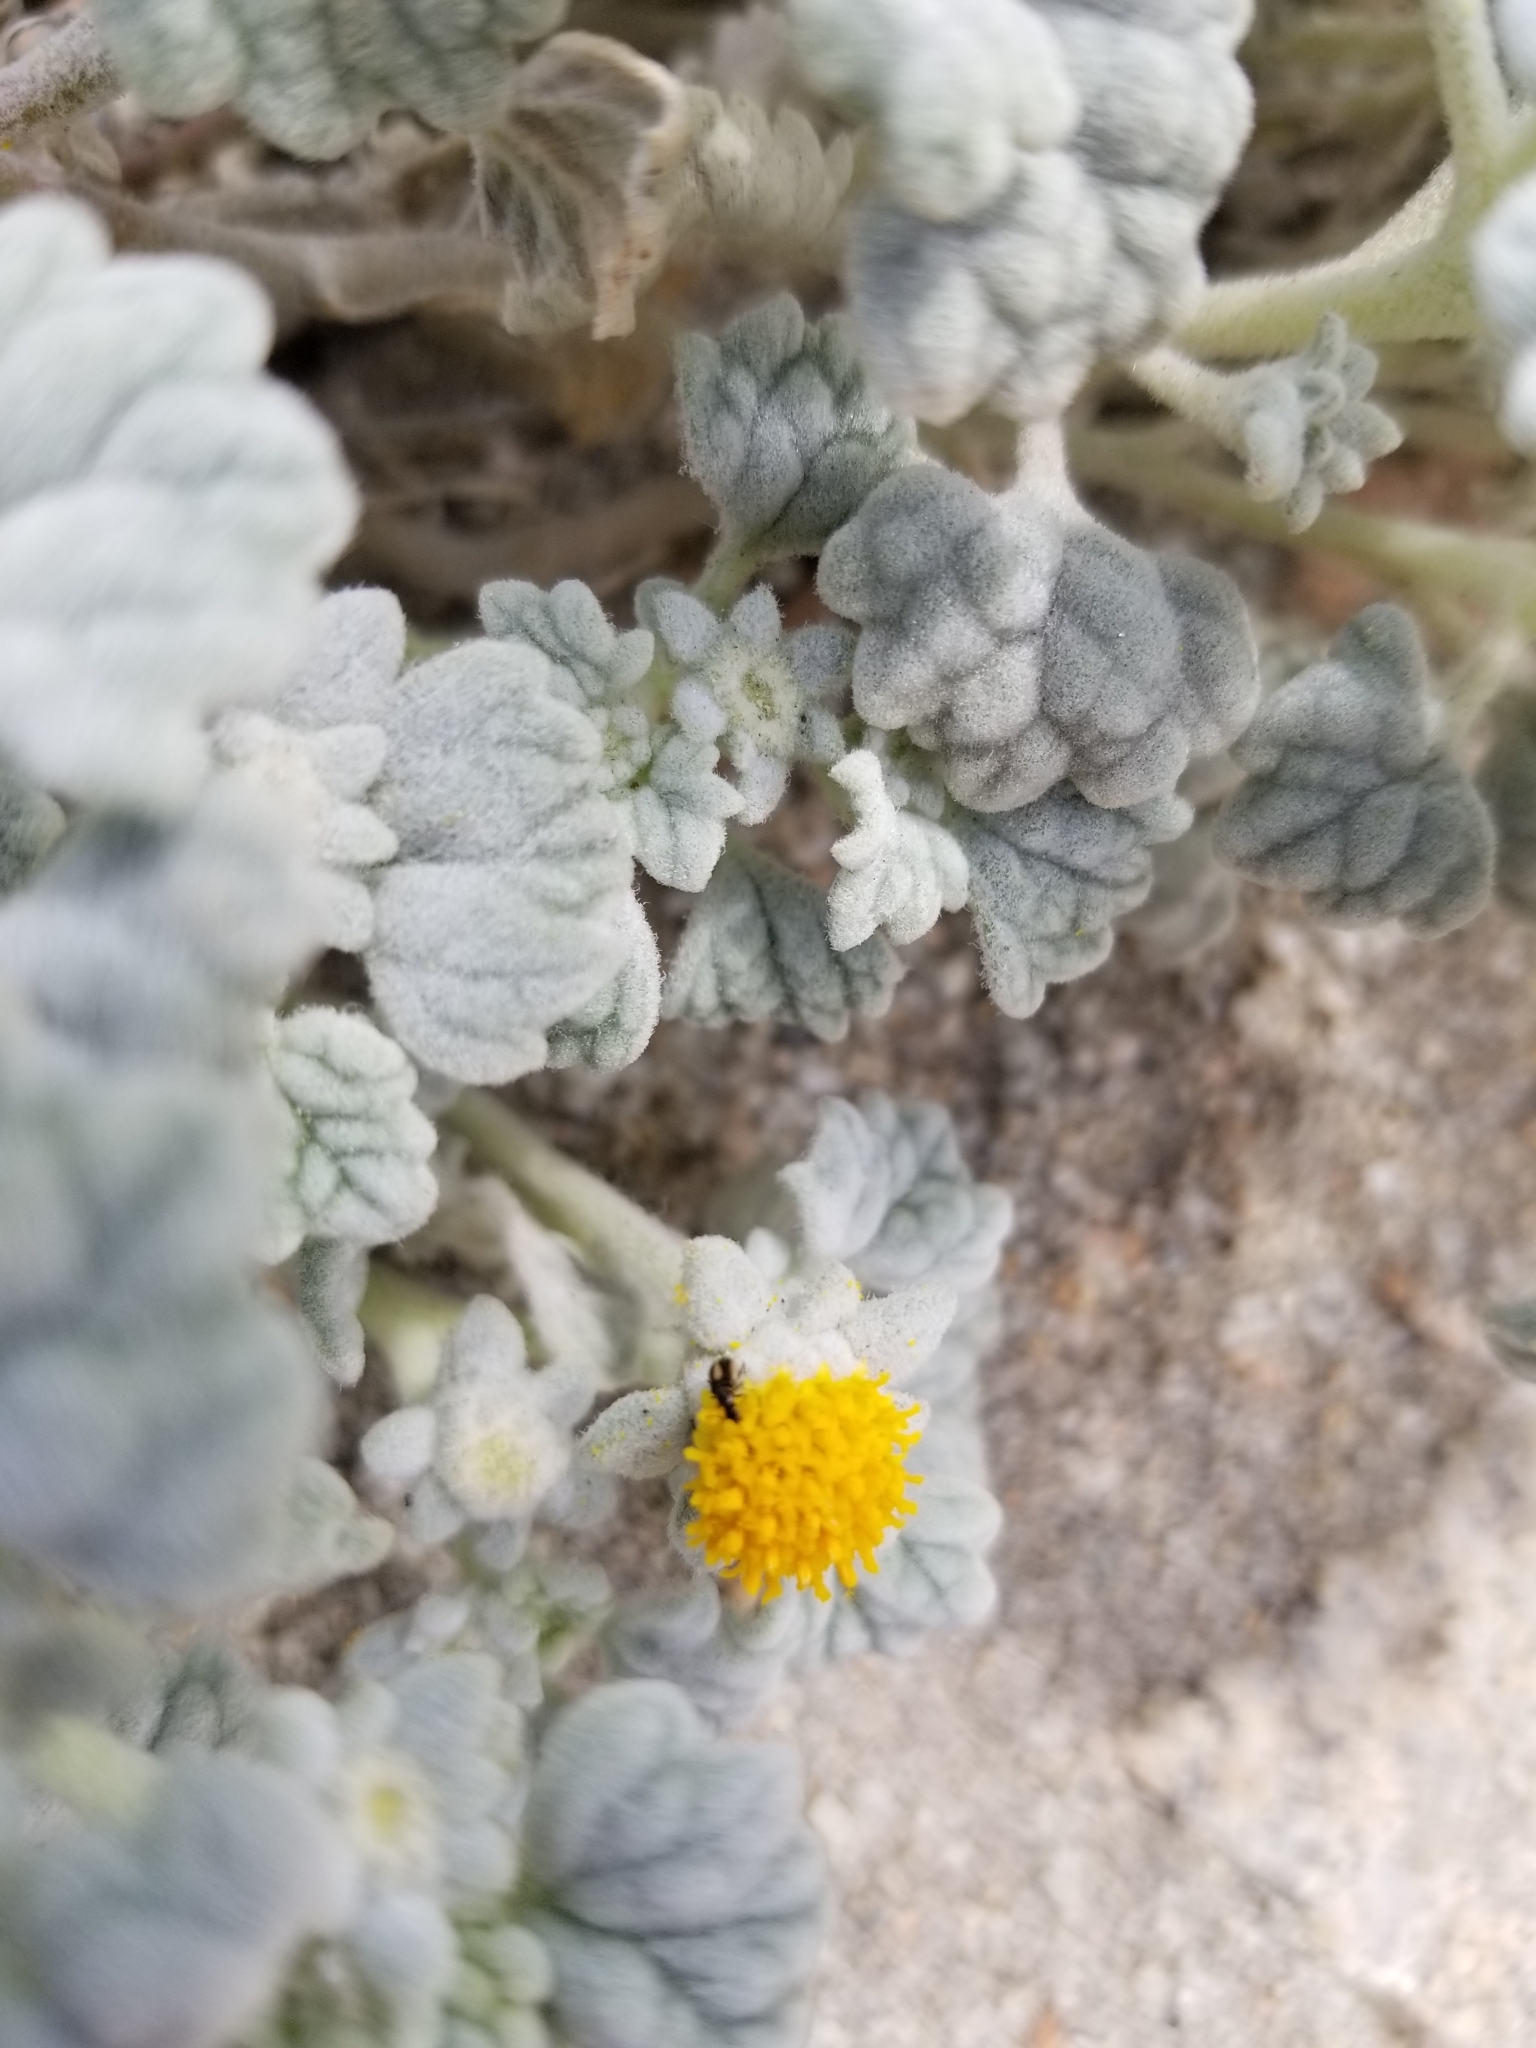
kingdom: Plantae
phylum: Tracheophyta
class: Magnoliopsida
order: Asterales
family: Asteraceae
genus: Psathyrotes
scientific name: Psathyrotes ramosissima
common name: Turtleback
